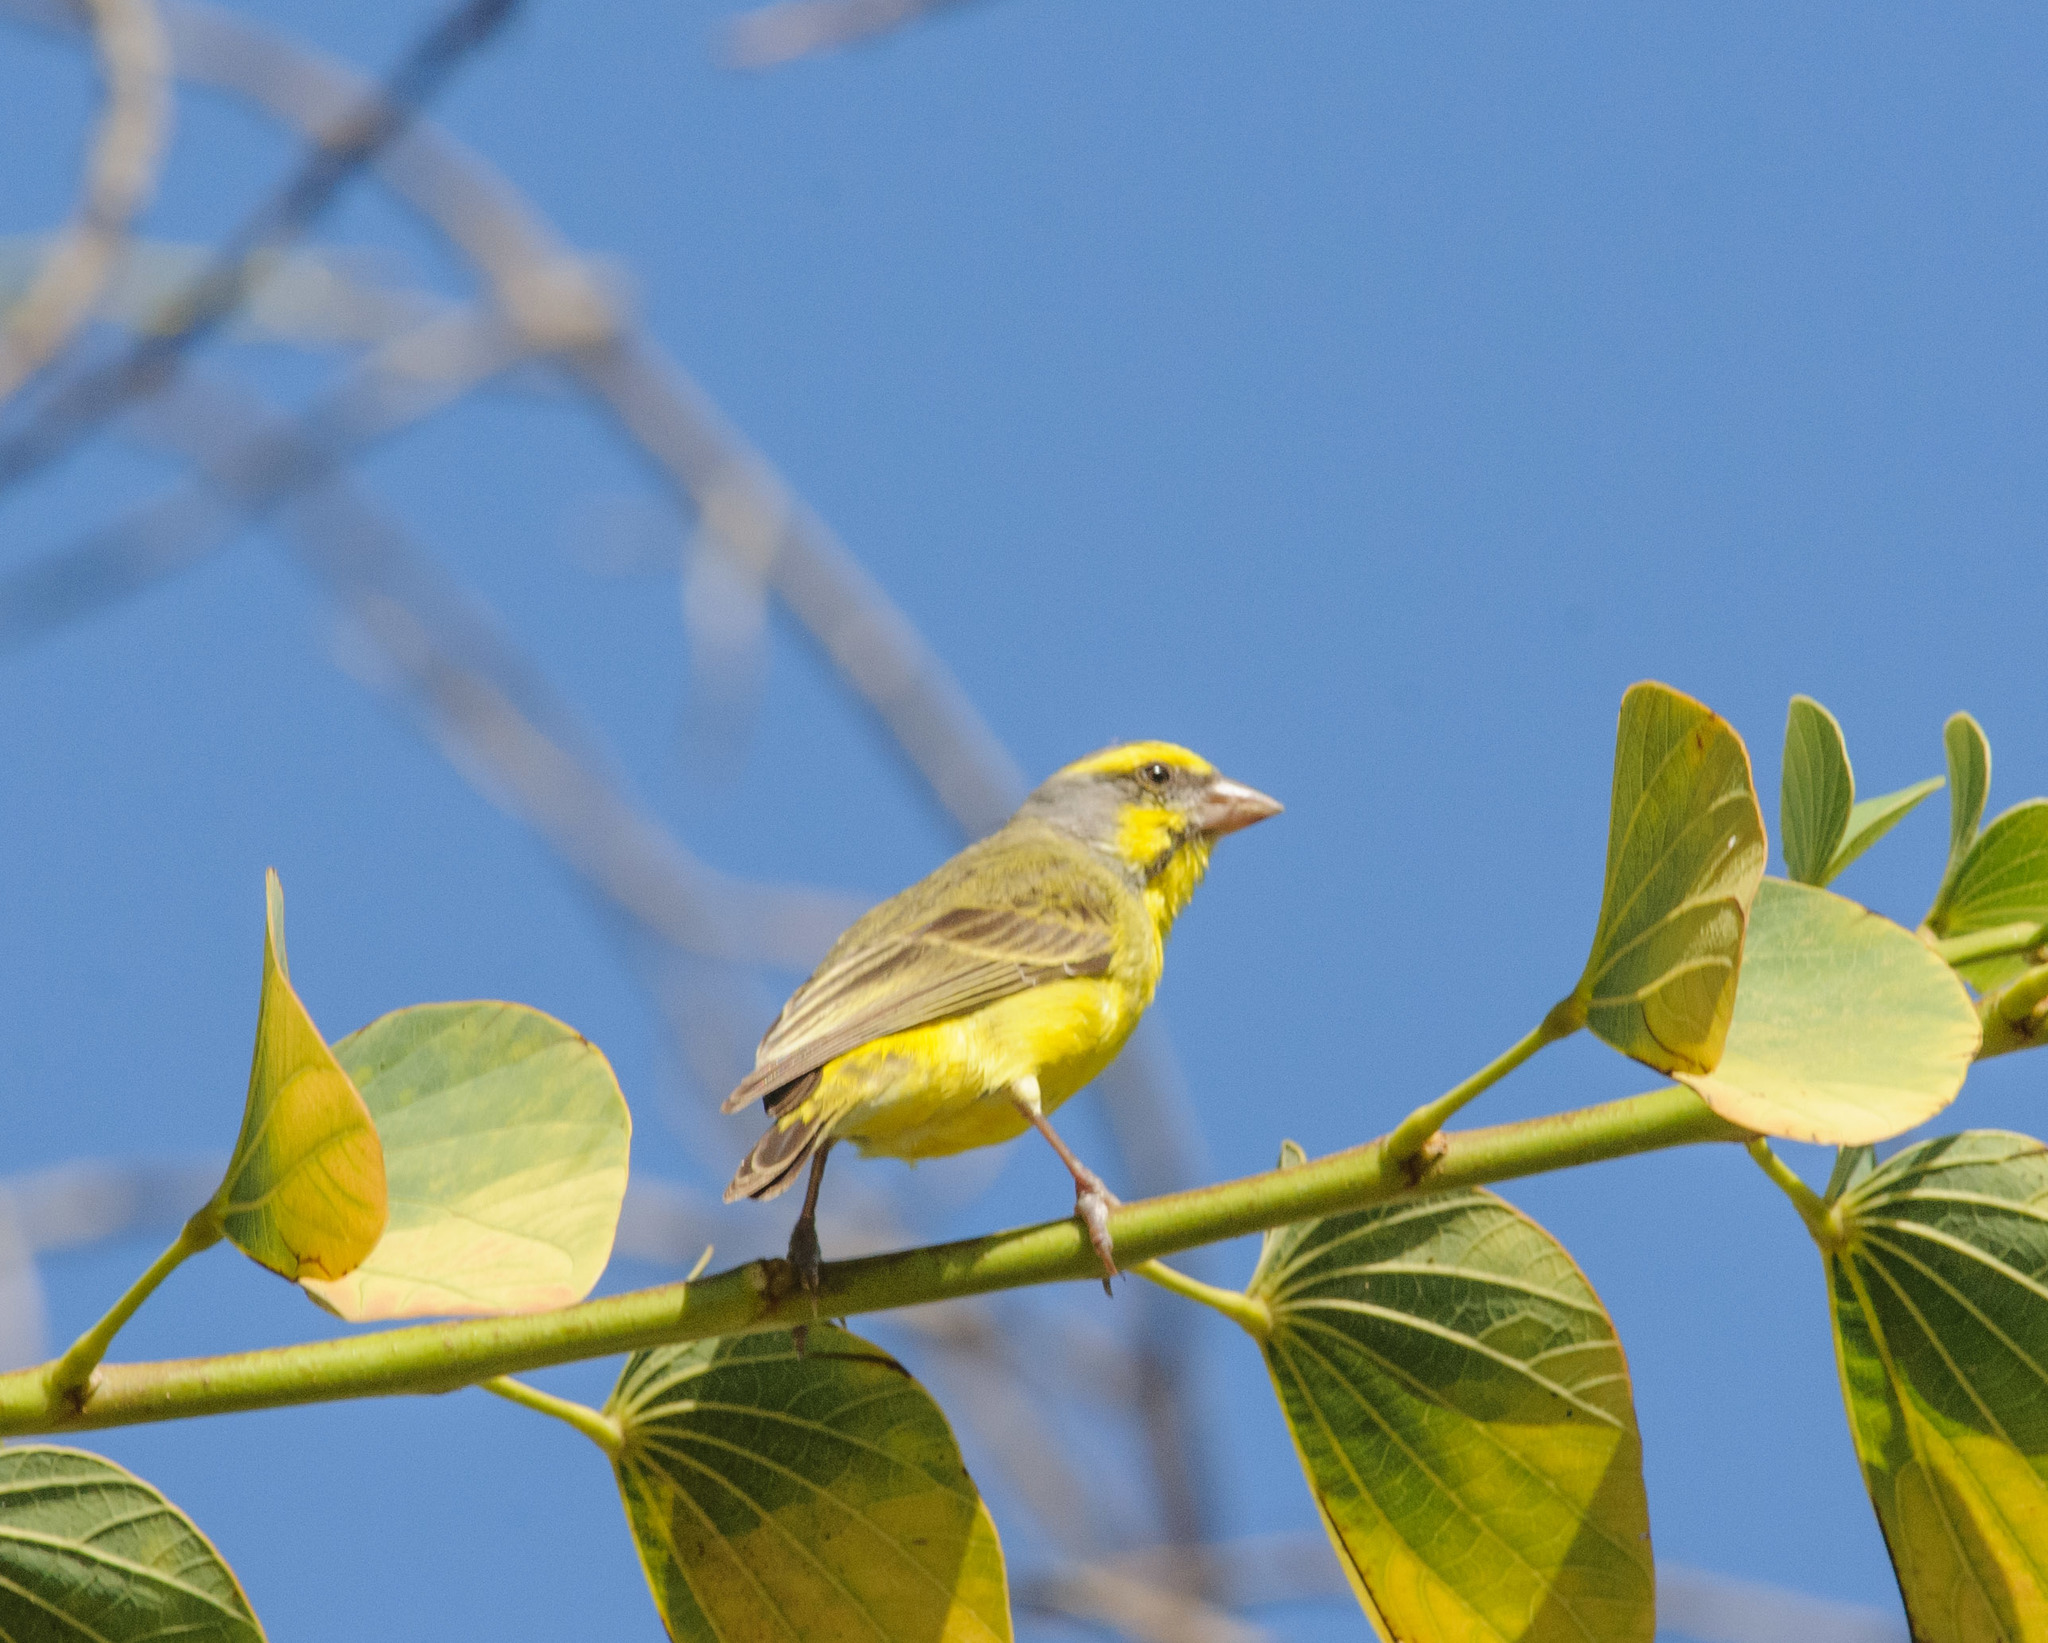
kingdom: Animalia
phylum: Chordata
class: Aves
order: Passeriformes
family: Fringillidae
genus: Crithagra
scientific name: Crithagra mozambica
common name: Yellow-fronted canary
